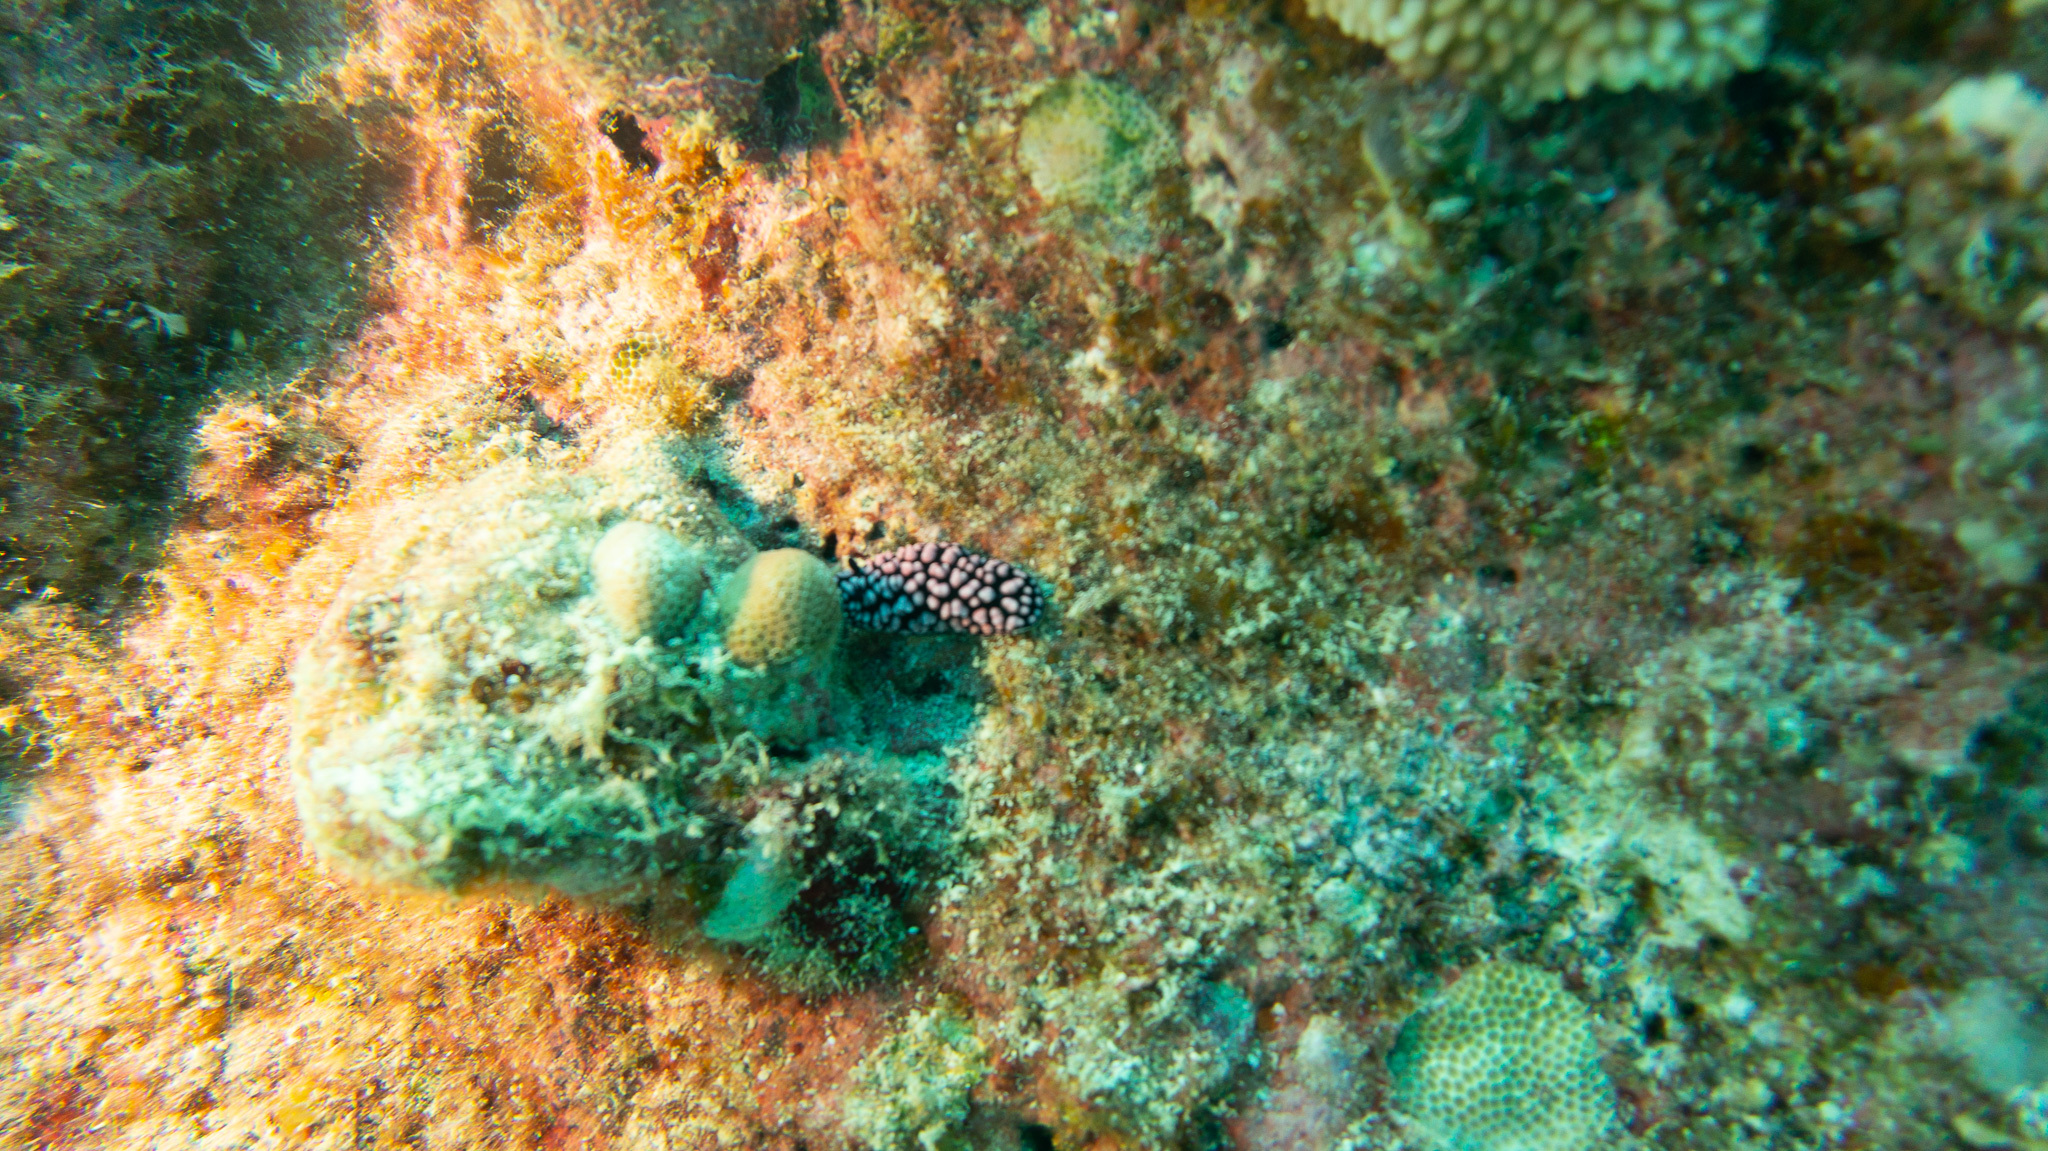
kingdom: Animalia
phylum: Mollusca
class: Gastropoda
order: Nudibranchia
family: Phyllidiidae
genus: Phyllidiella
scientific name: Phyllidiella pustulosa
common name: Pustular phyllidia
